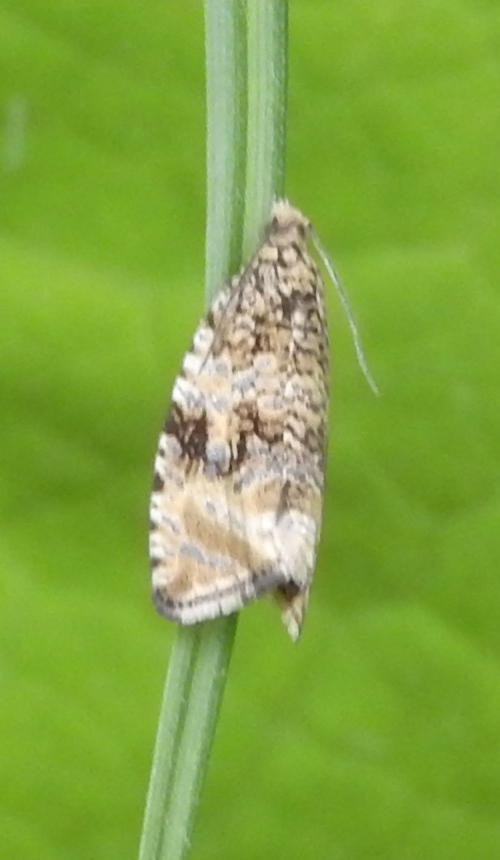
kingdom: Animalia
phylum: Arthropoda
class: Insecta
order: Lepidoptera
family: Tortricidae
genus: Syricoris
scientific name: Syricoris lacunana
